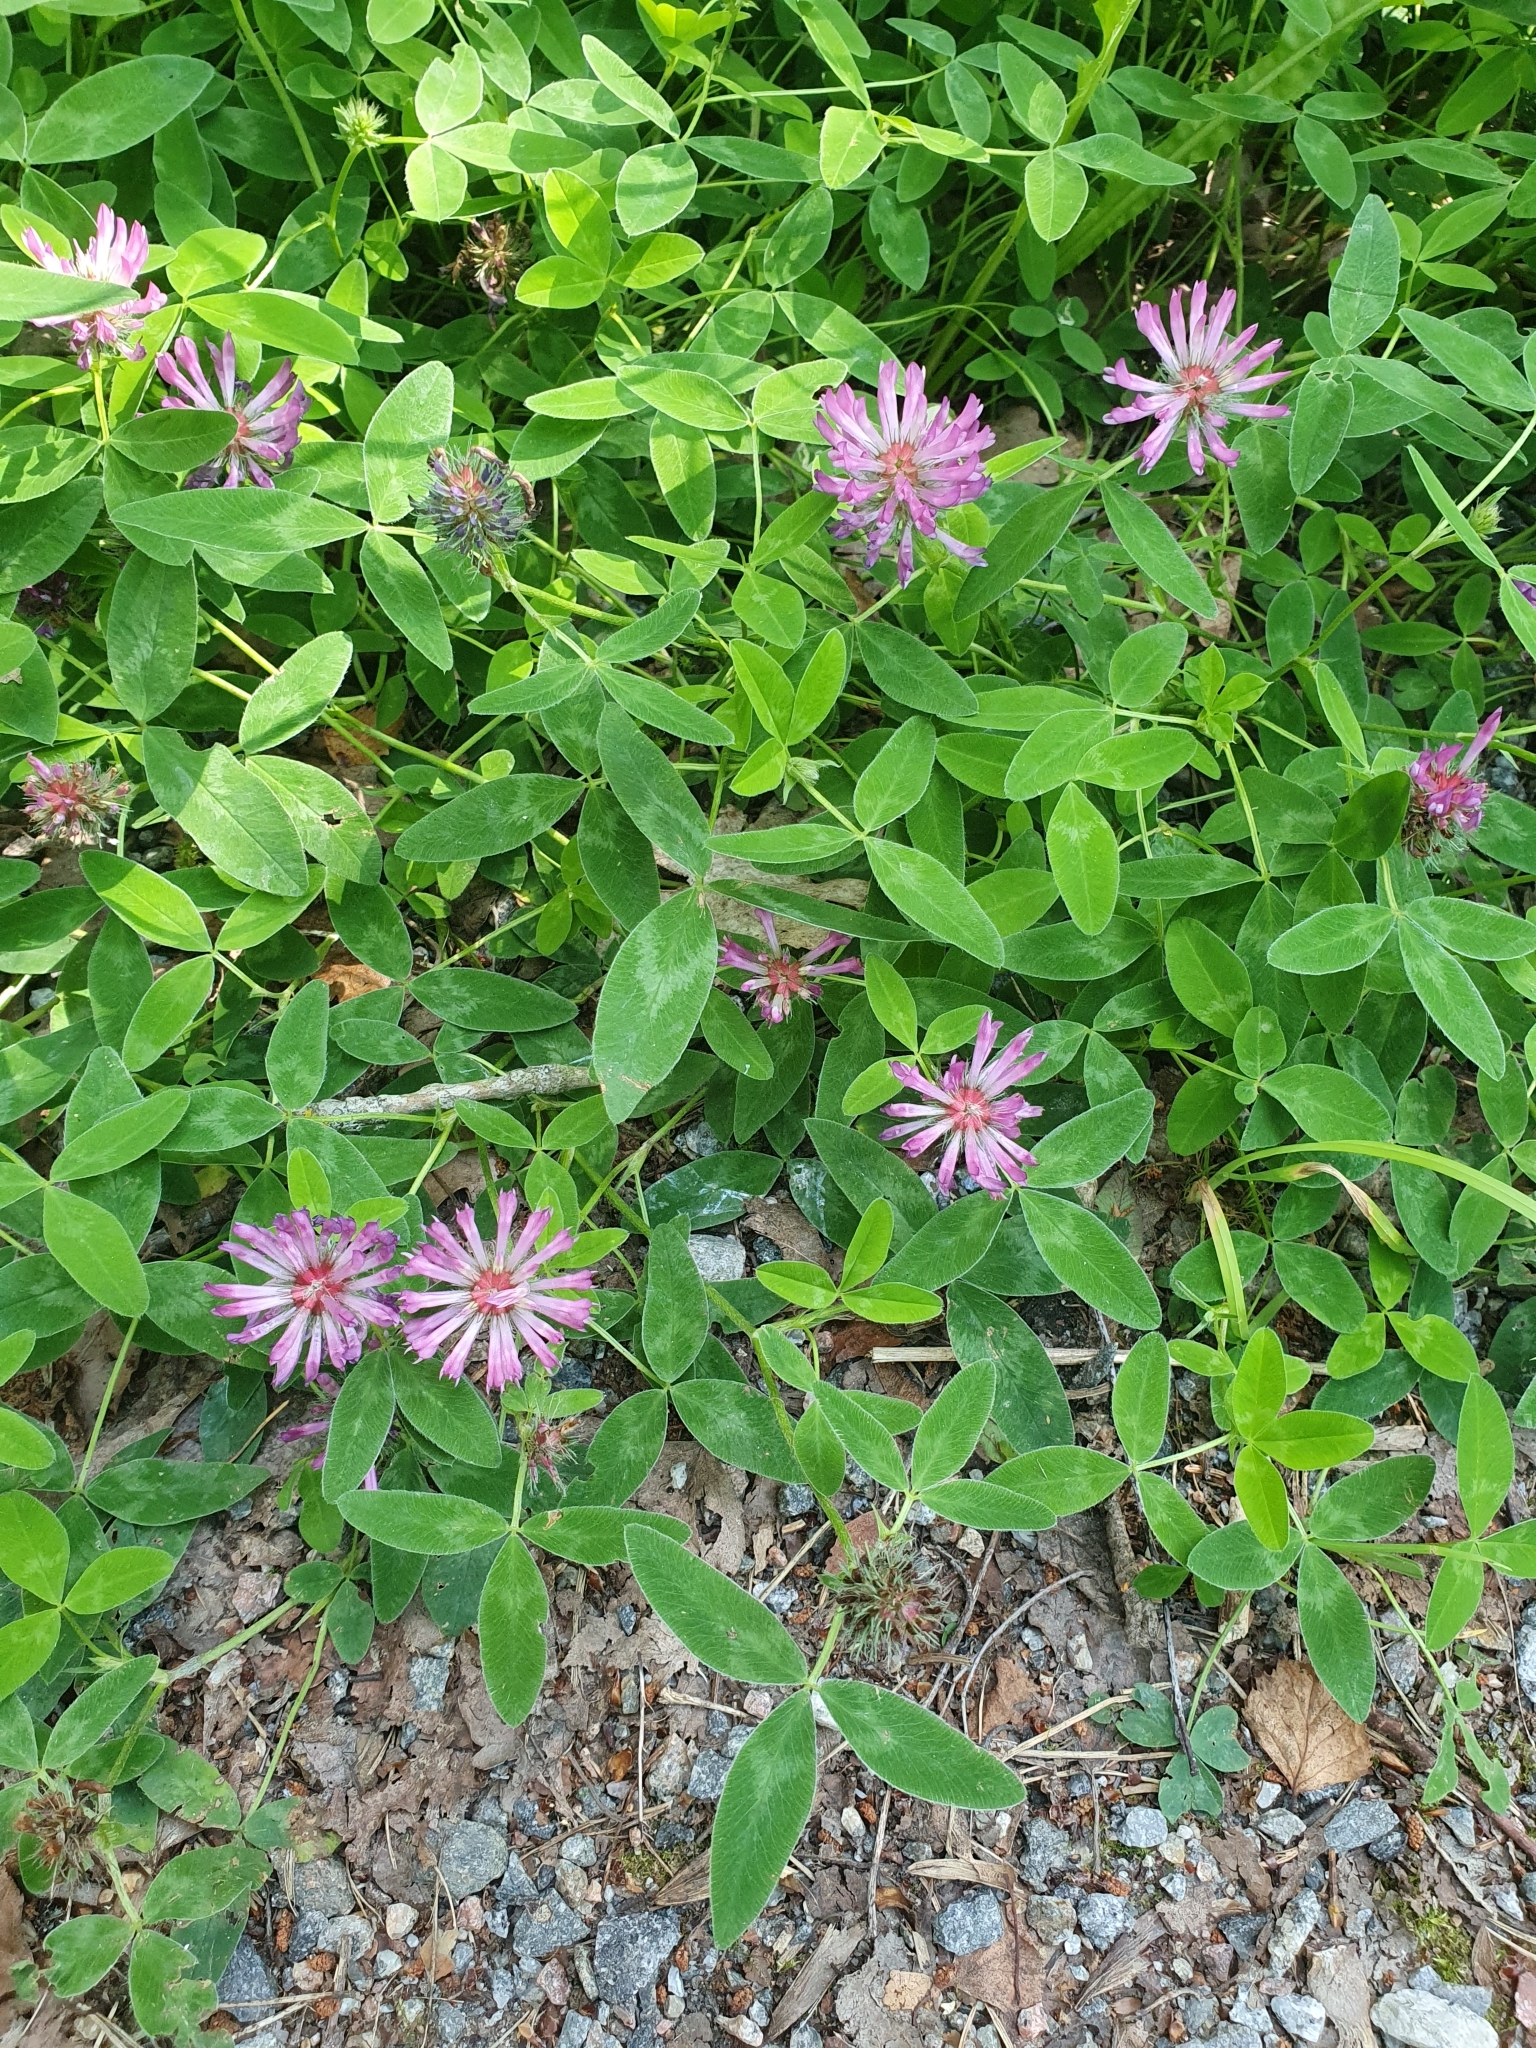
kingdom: Plantae
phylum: Tracheophyta
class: Magnoliopsida
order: Fabales
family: Fabaceae
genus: Trifolium
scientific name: Trifolium medium
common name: Zigzag clover
